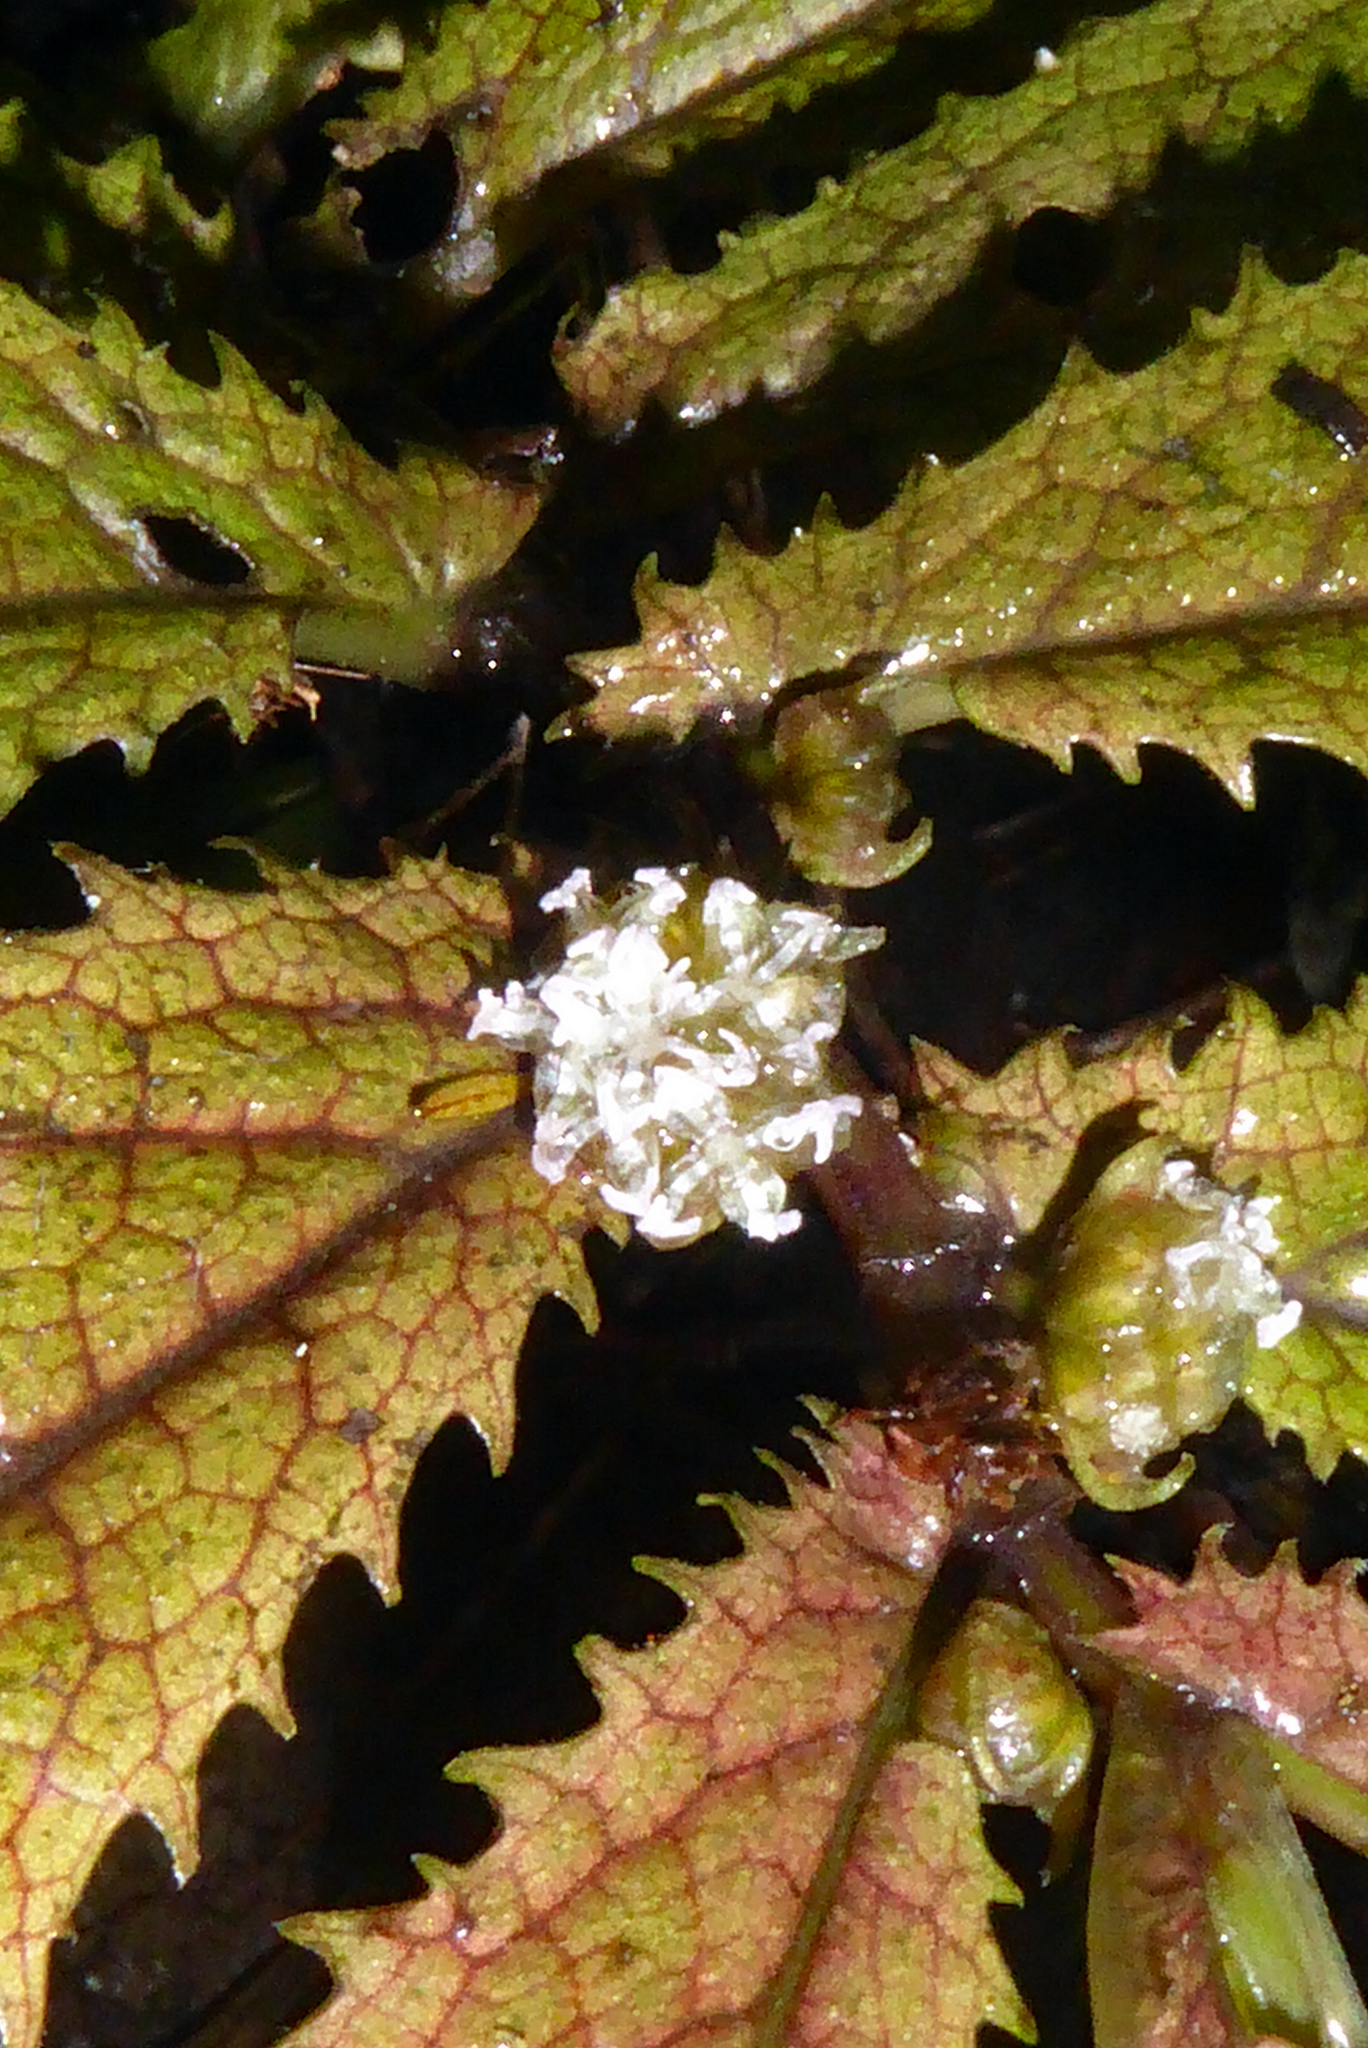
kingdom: Plantae
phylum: Tracheophyta
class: Magnoliopsida
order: Rosales
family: Urticaceae
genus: Elatostema
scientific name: Elatostema rugosum
